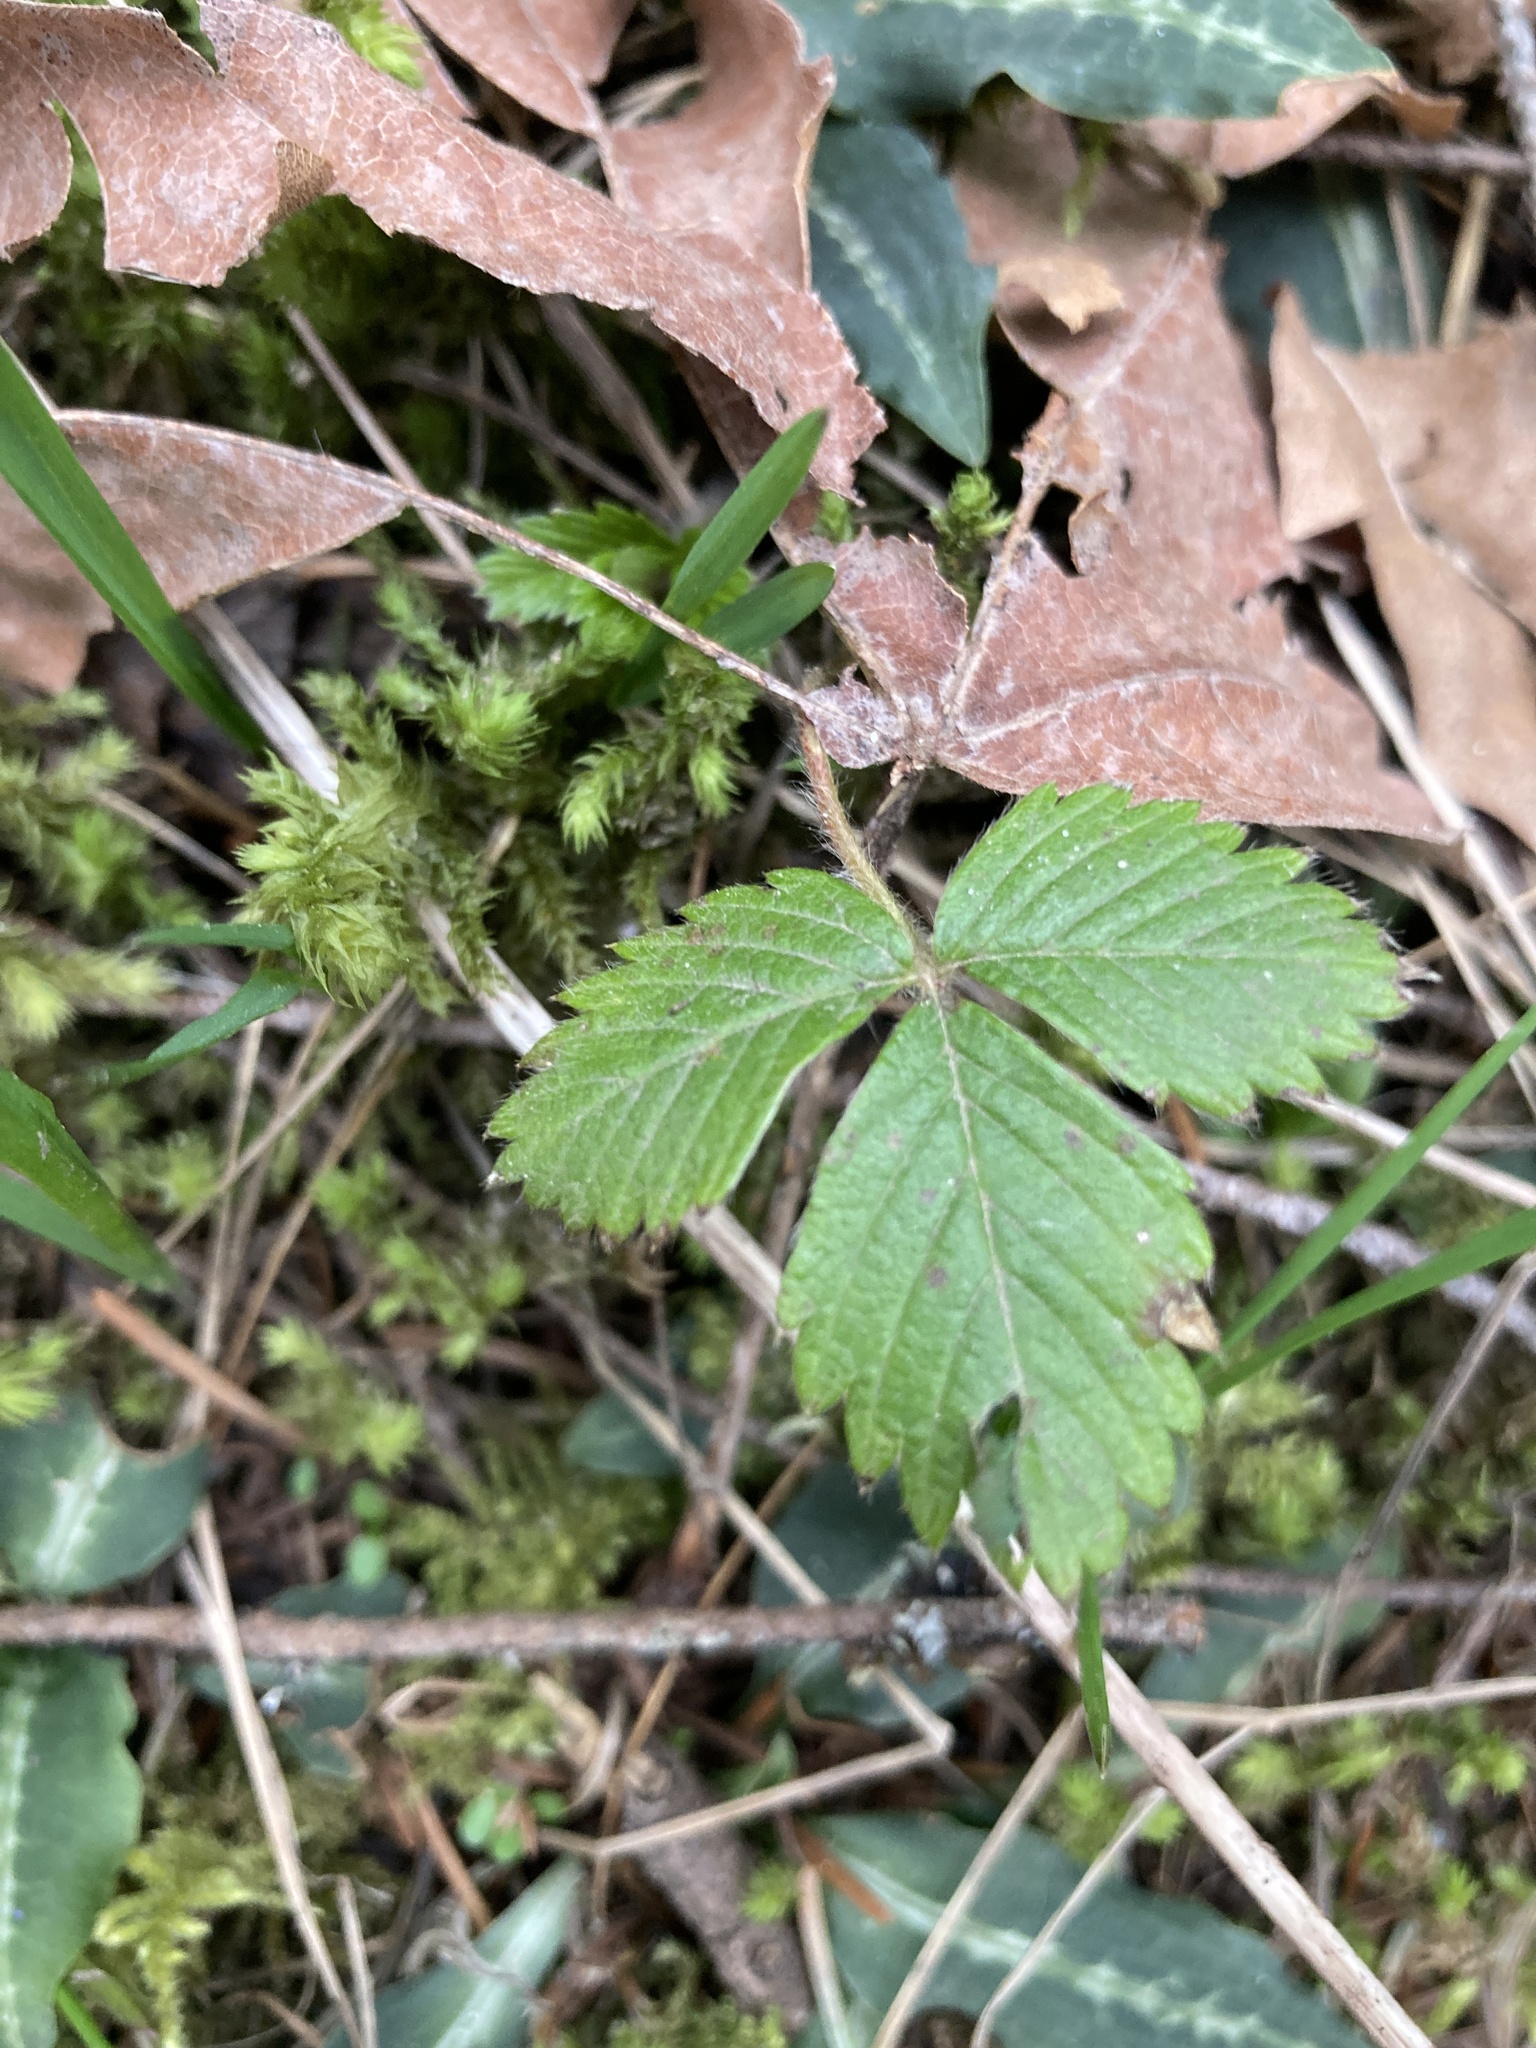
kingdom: Plantae
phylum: Tracheophyta
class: Magnoliopsida
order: Rosales
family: Rosaceae
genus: Fragaria
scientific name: Fragaria vesca
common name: Wild strawberry
